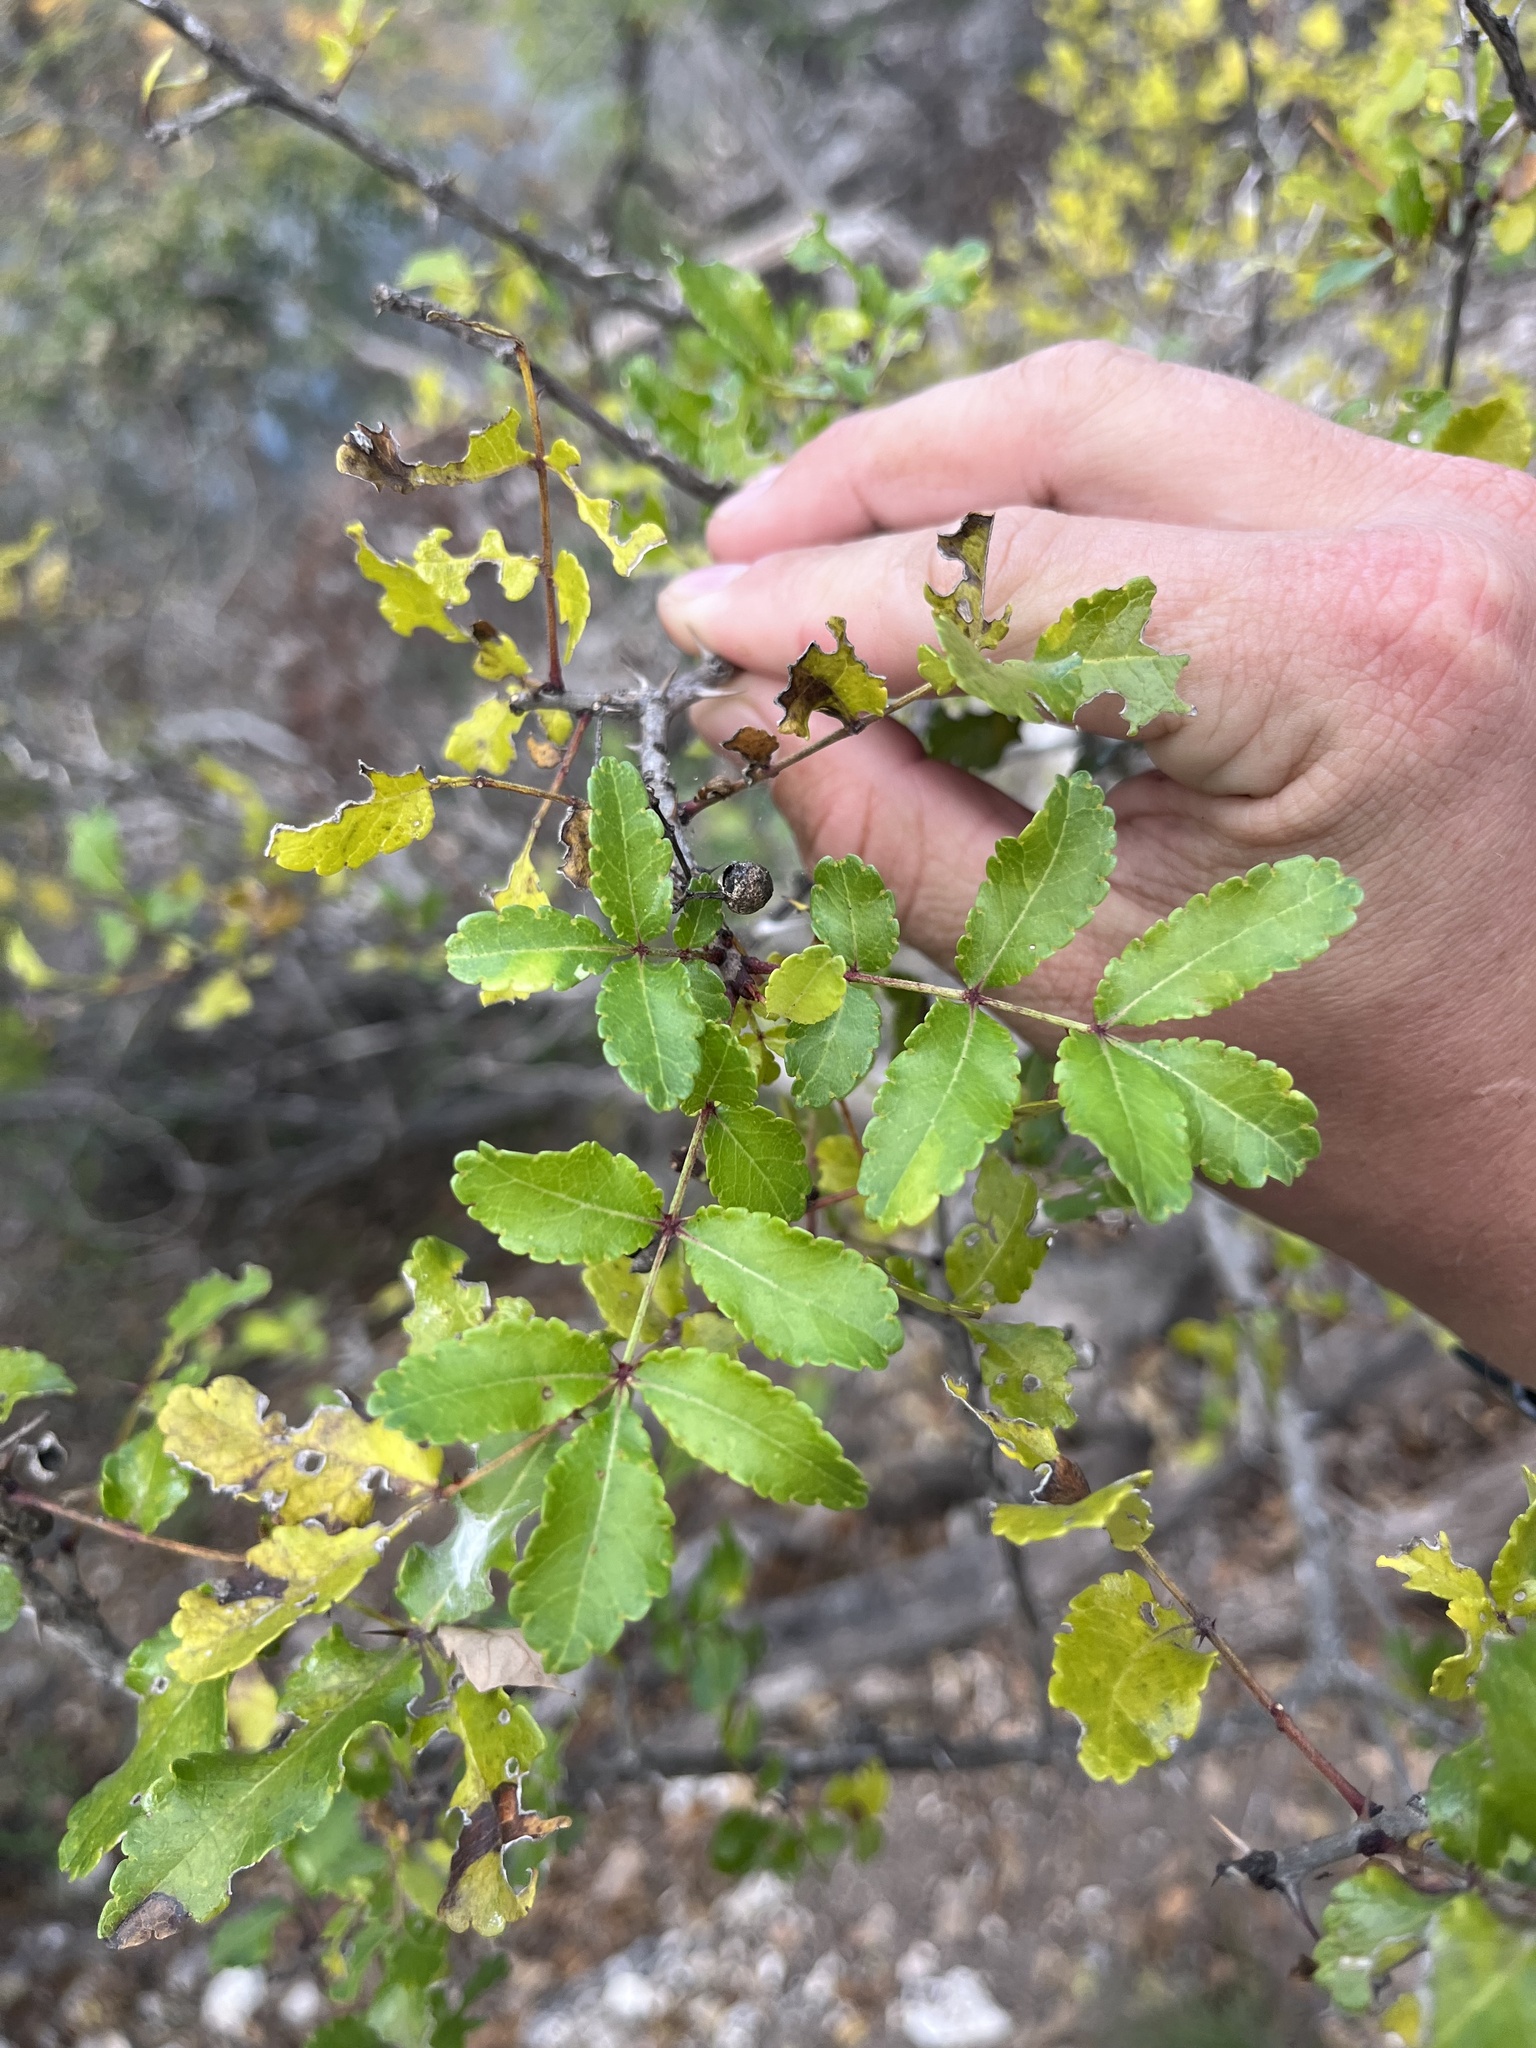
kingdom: Plantae
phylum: Tracheophyta
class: Magnoliopsida
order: Sapindales
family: Rutaceae
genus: Zanthoxylum
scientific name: Zanthoxylum clava-herculis
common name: Hercules'-club
